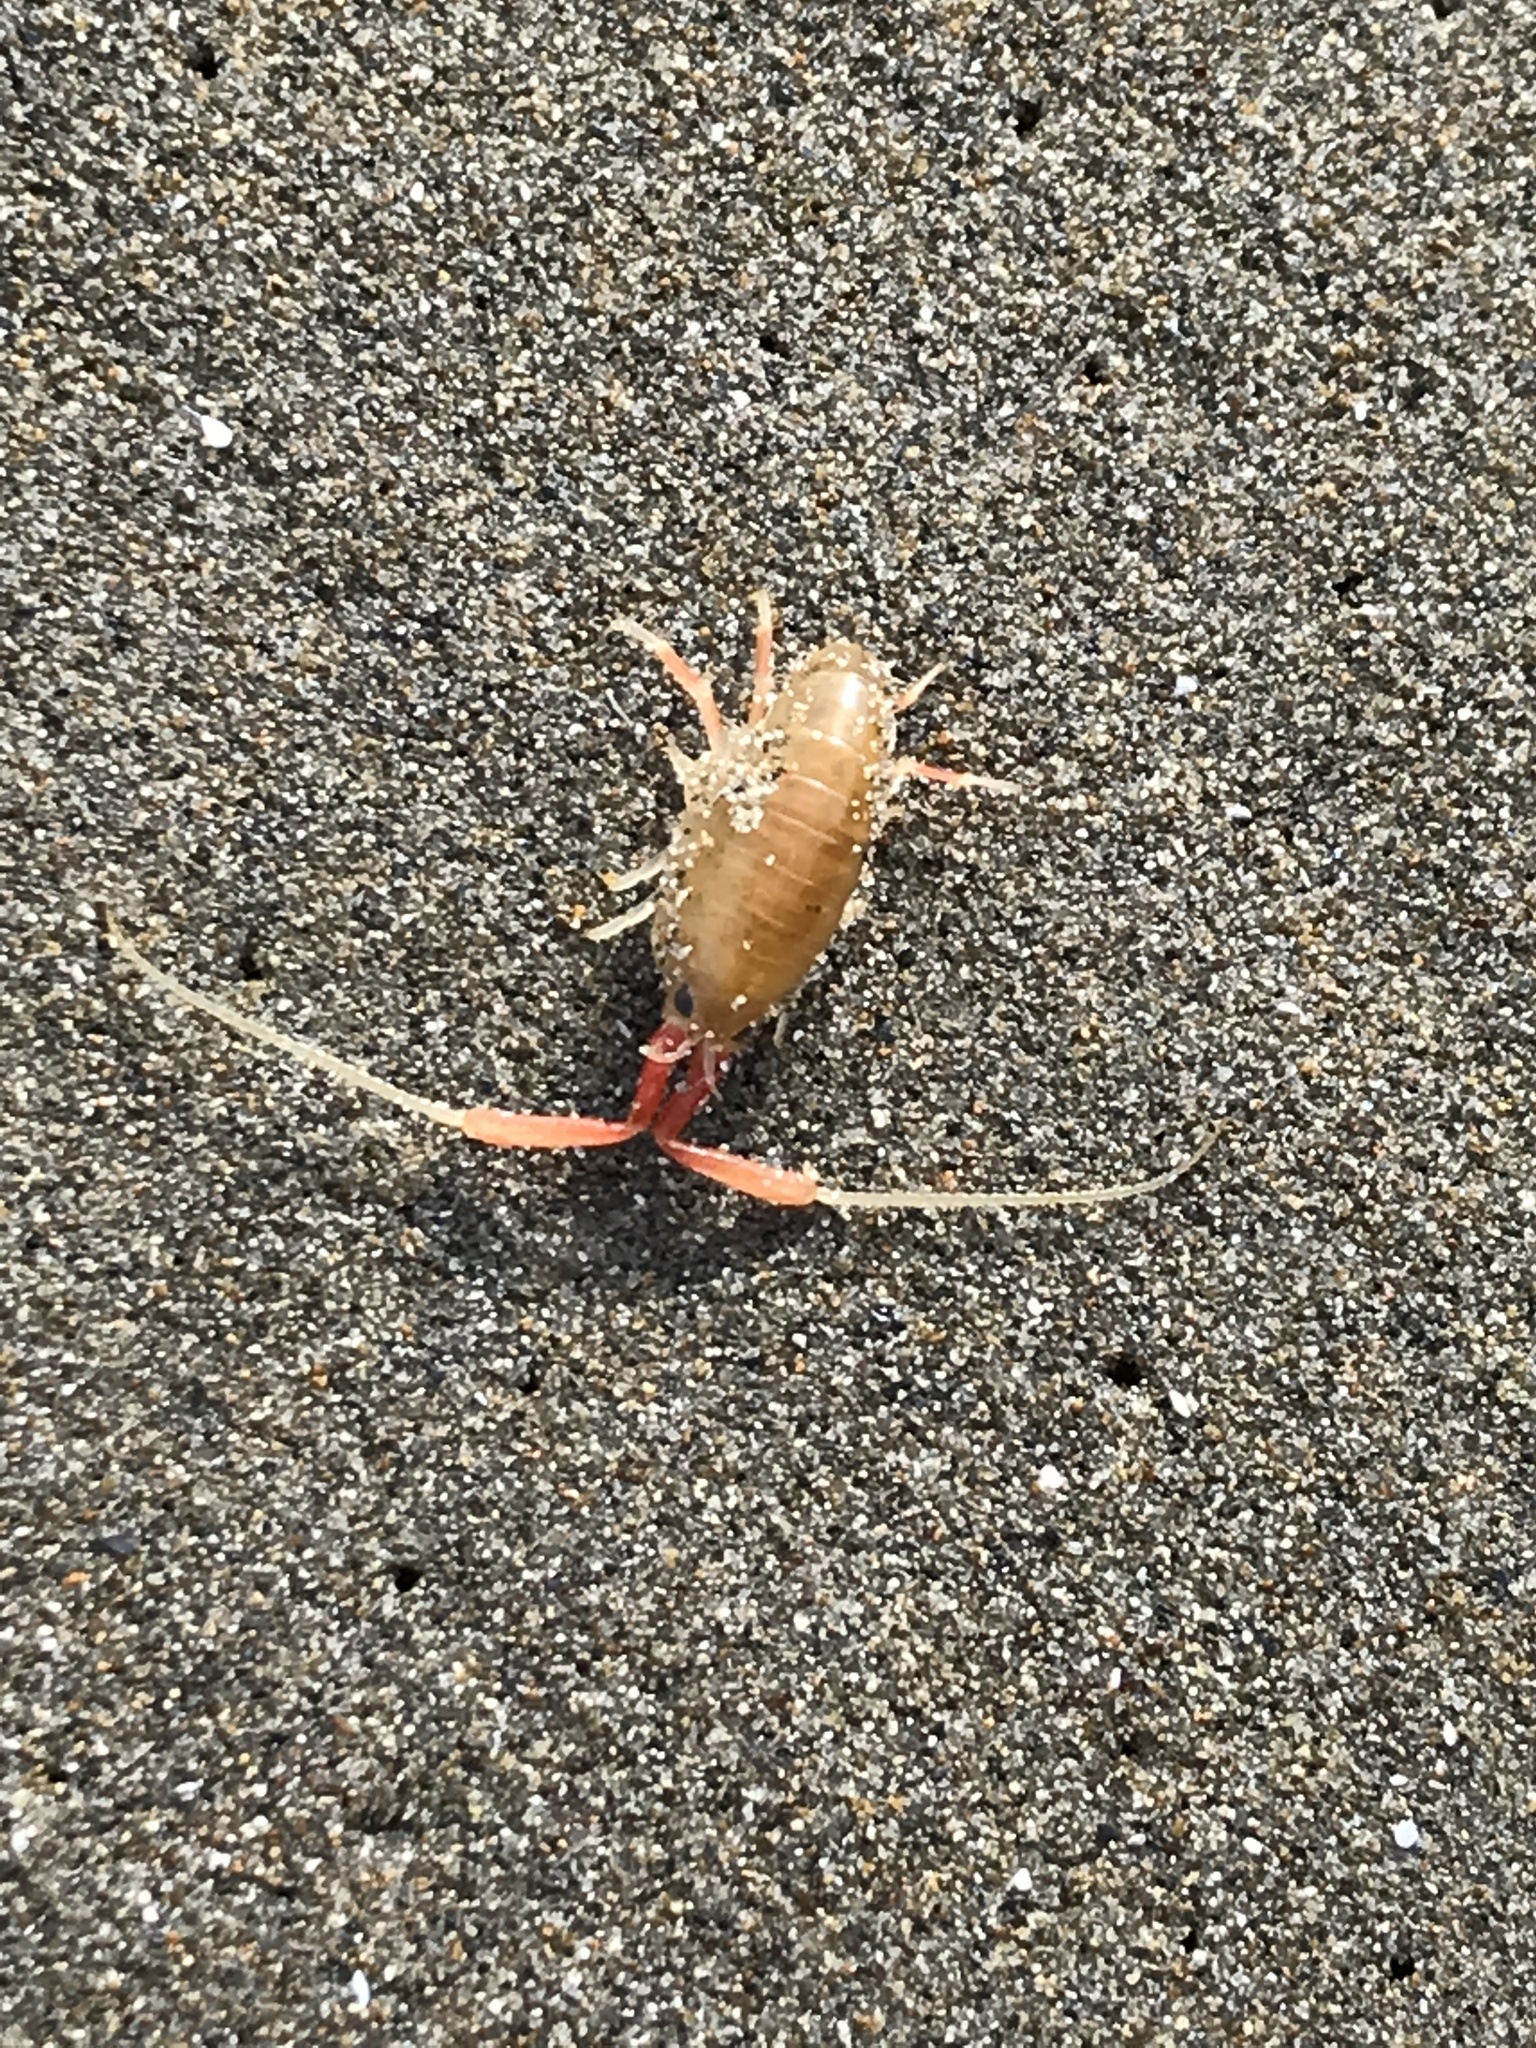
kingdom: Animalia
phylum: Arthropoda
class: Malacostraca
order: Amphipoda
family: Talitridae
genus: Megalorchestia
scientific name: Megalorchestia californiana
